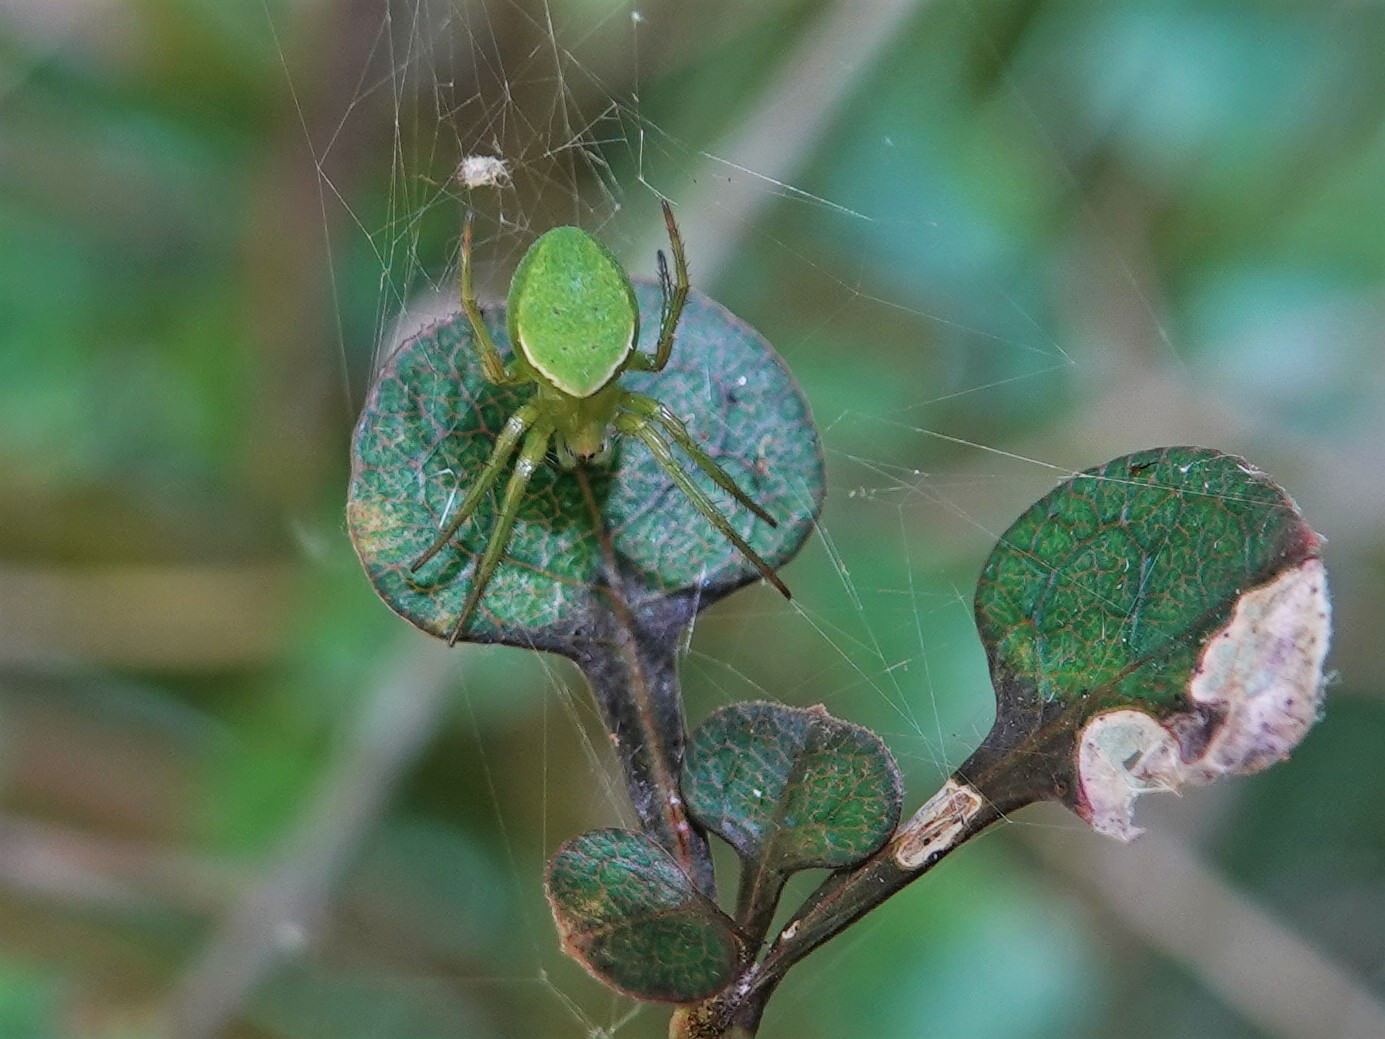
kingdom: Animalia
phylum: Arthropoda
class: Arachnida
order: Araneae
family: Araneidae
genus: Colaranea
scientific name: Colaranea viriditas
